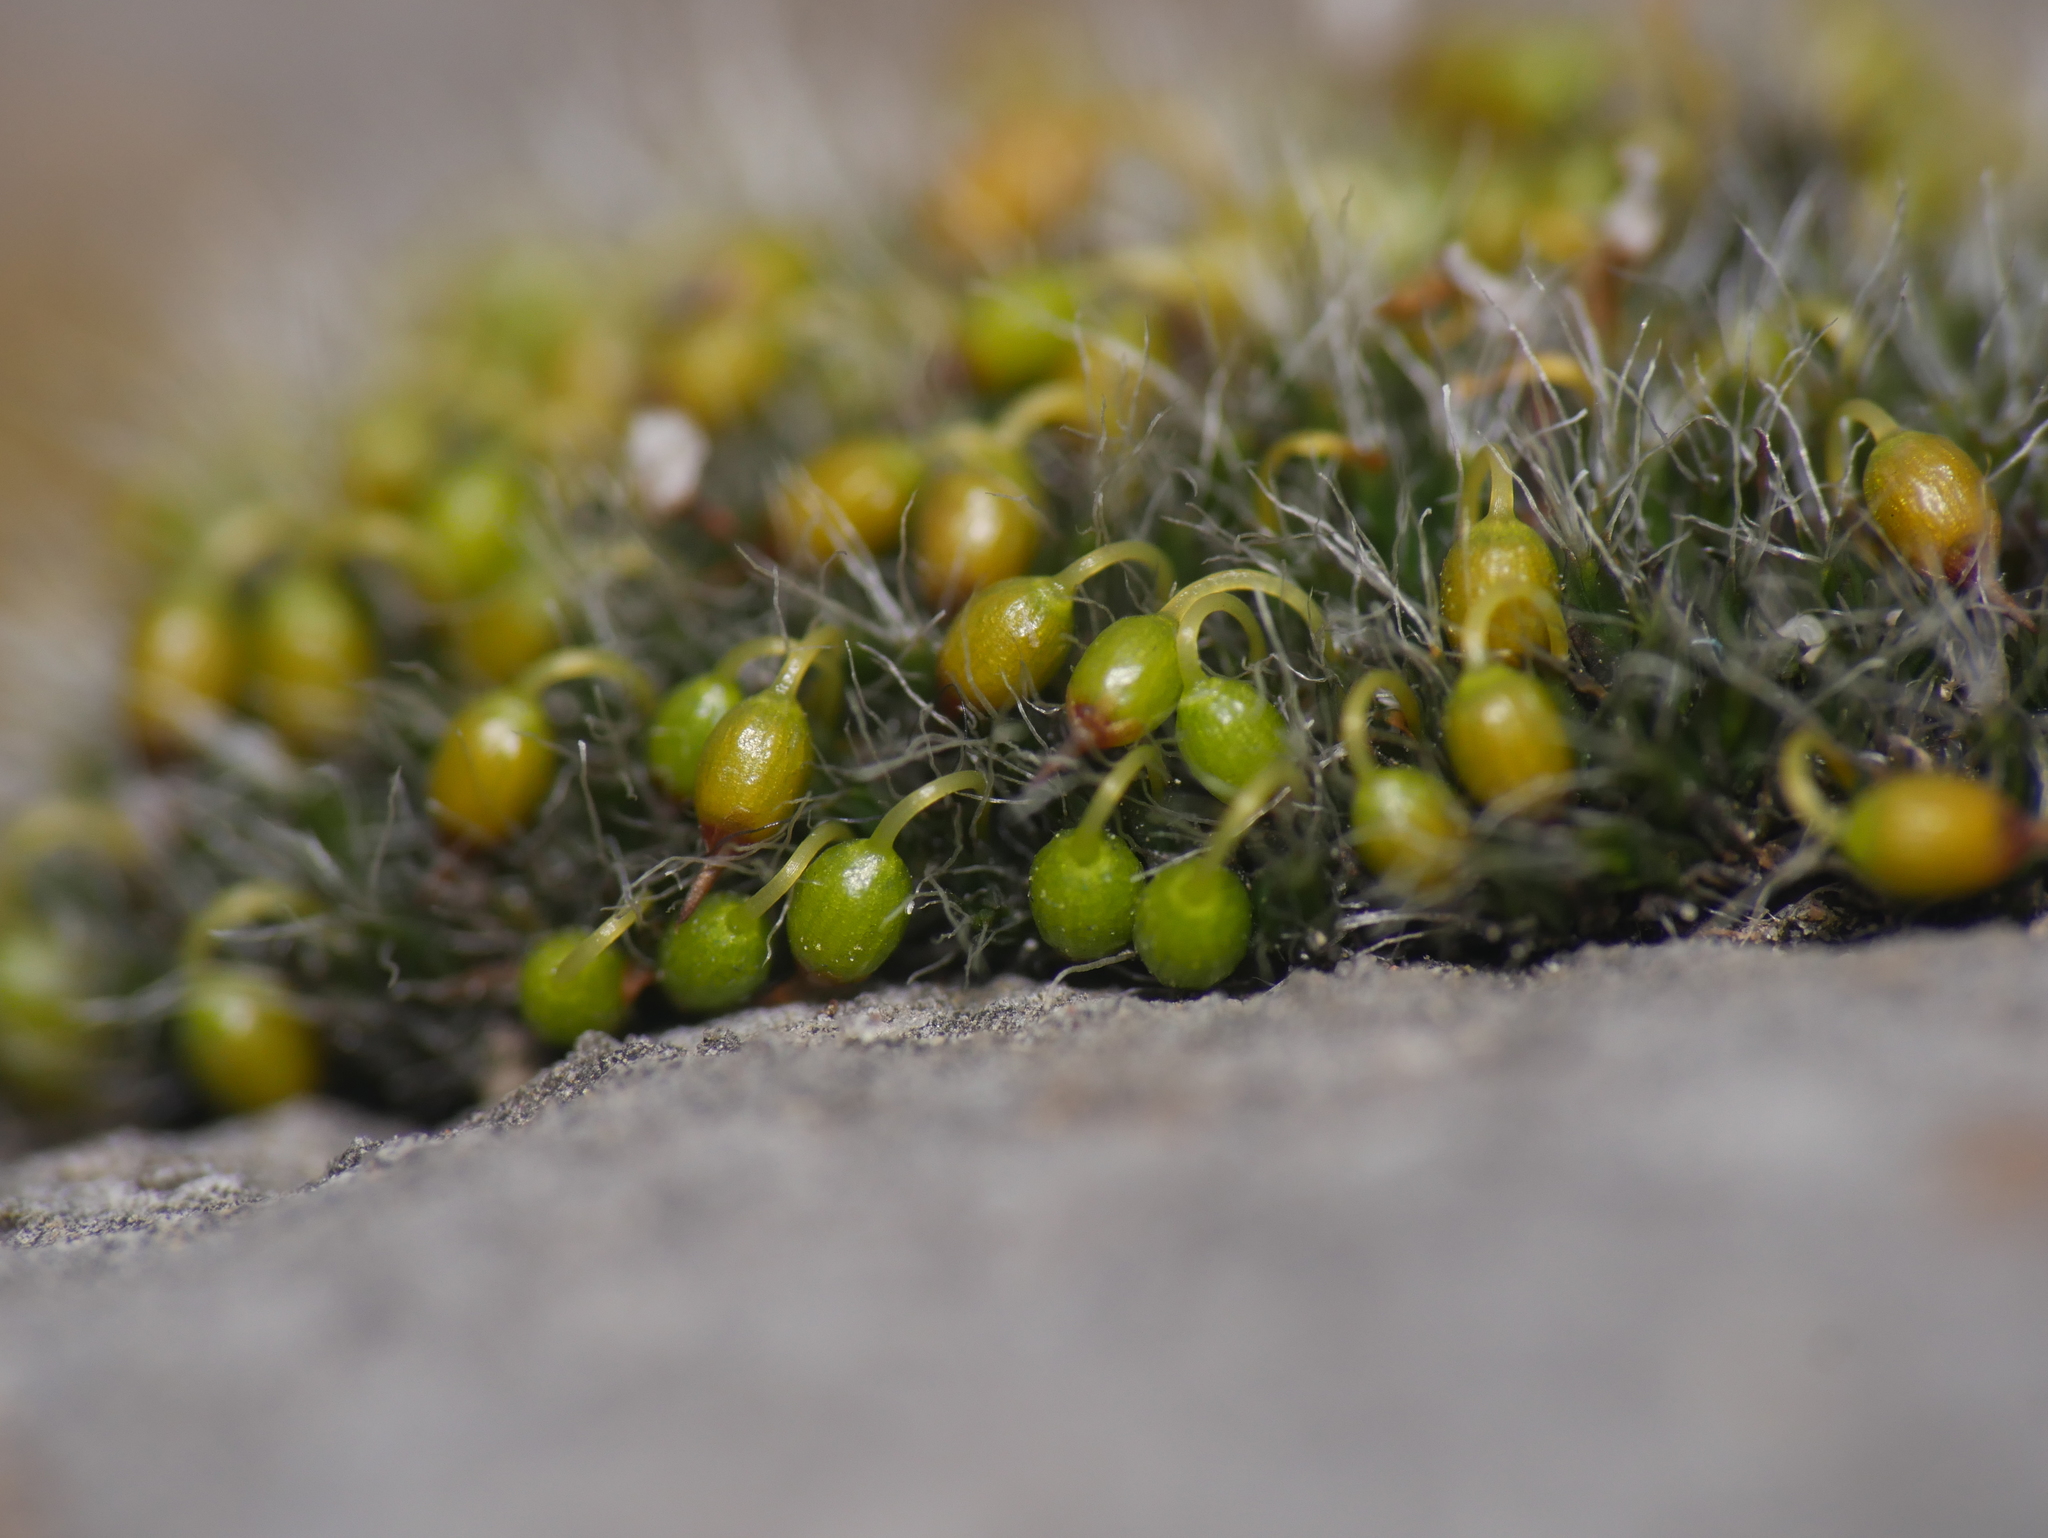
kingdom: Plantae
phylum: Bryophyta
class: Bryopsida
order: Grimmiales
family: Grimmiaceae
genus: Grimmia
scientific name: Grimmia pulvinata
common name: Grey-cushioned grimmia
